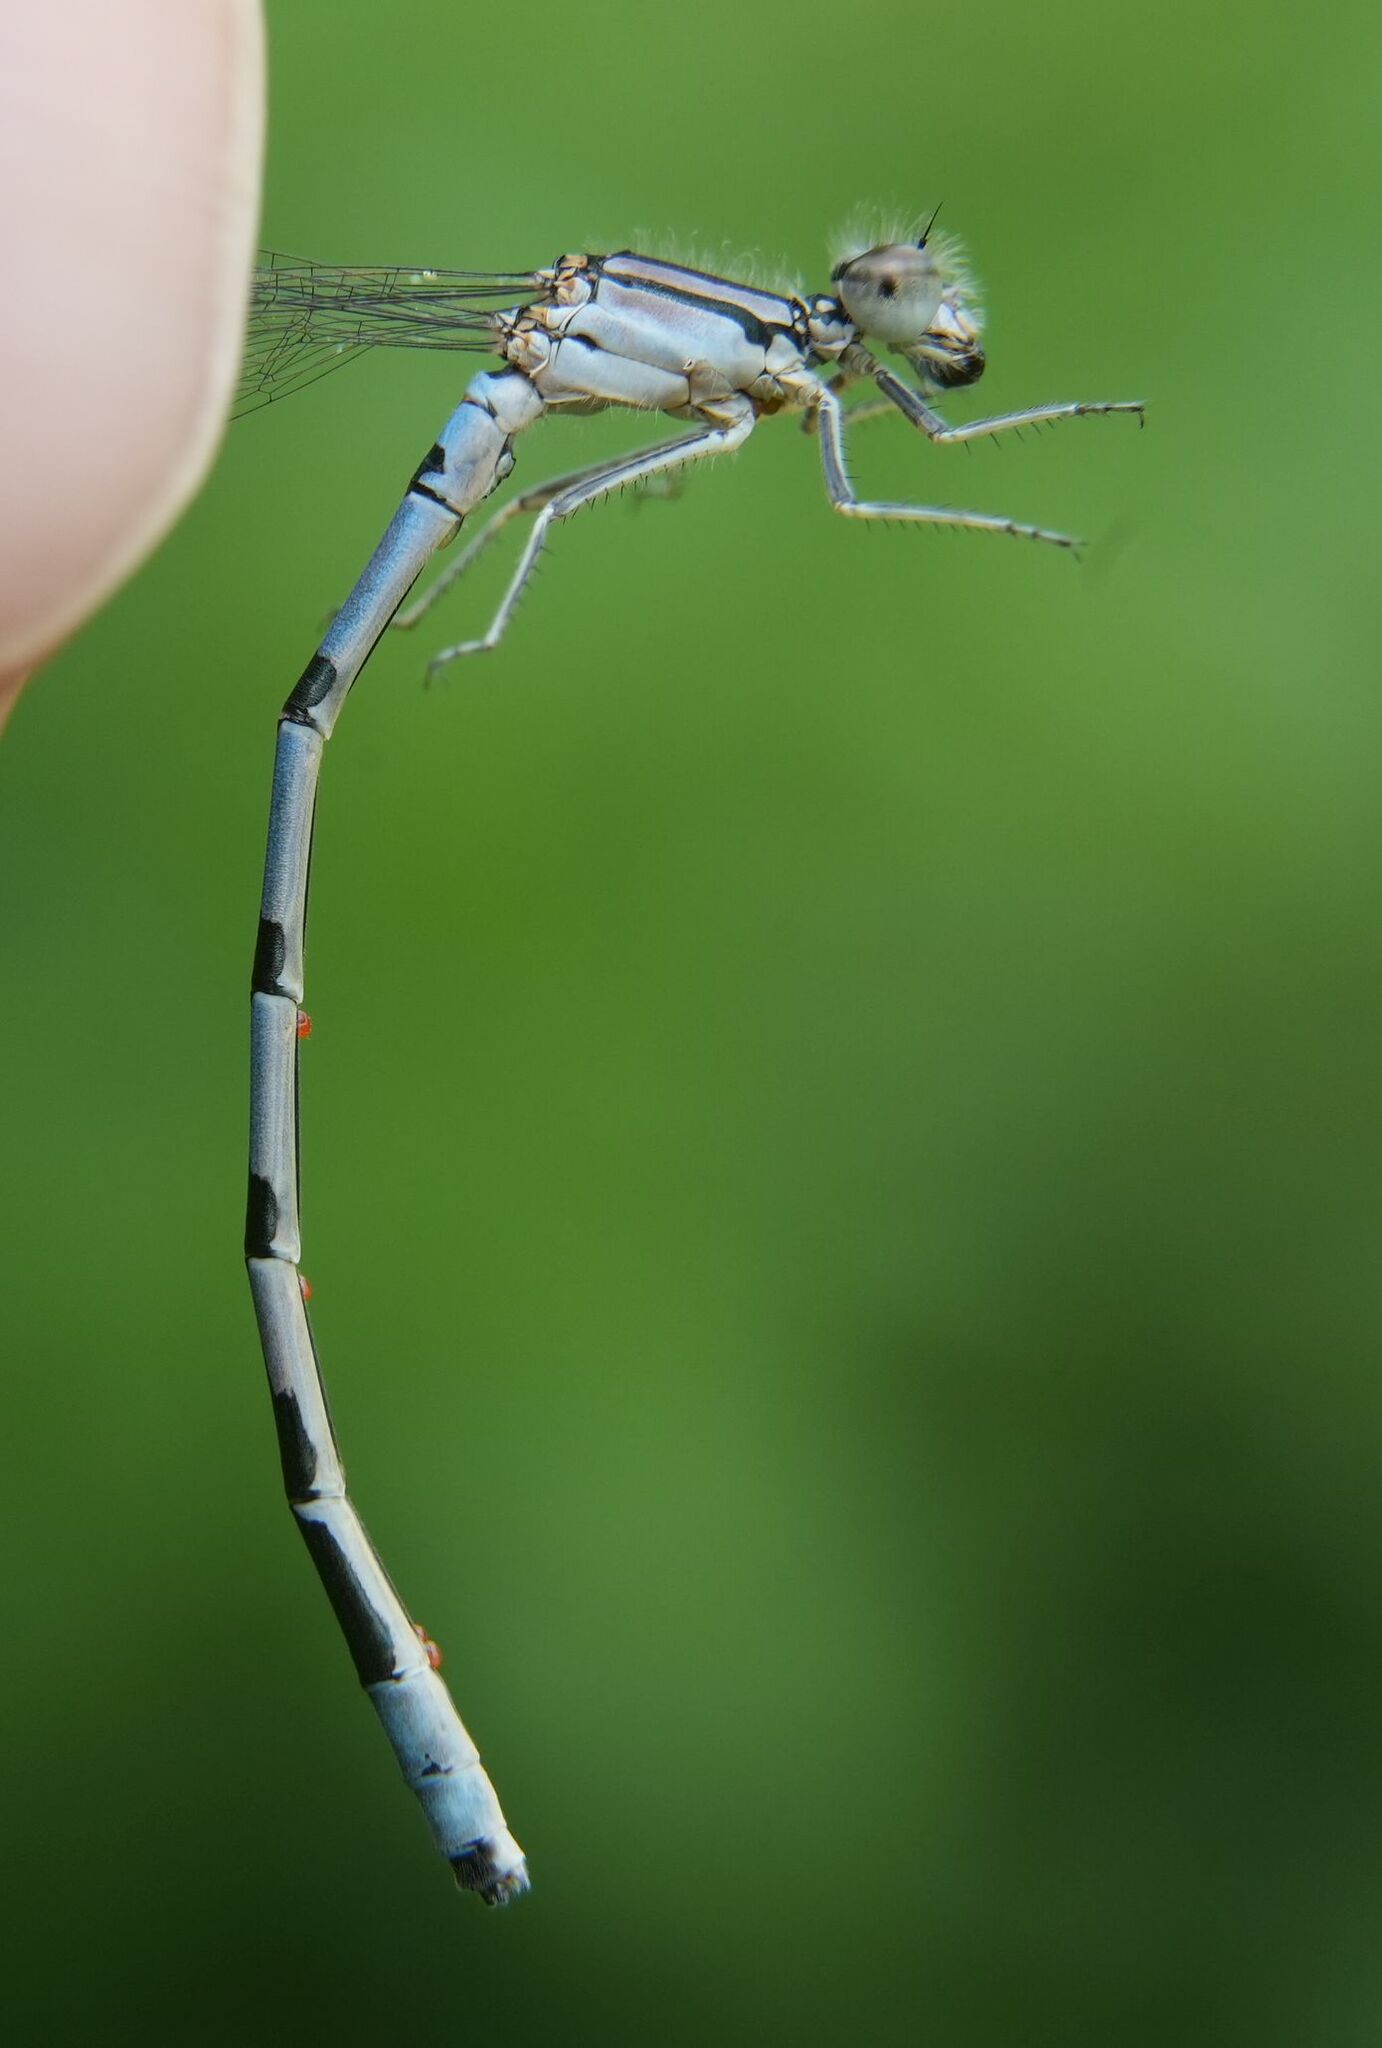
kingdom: Animalia
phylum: Arthropoda
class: Insecta
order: Odonata
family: Coenagrionidae
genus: Enallagma
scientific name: Enallagma ebrium
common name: Marsh bluet
